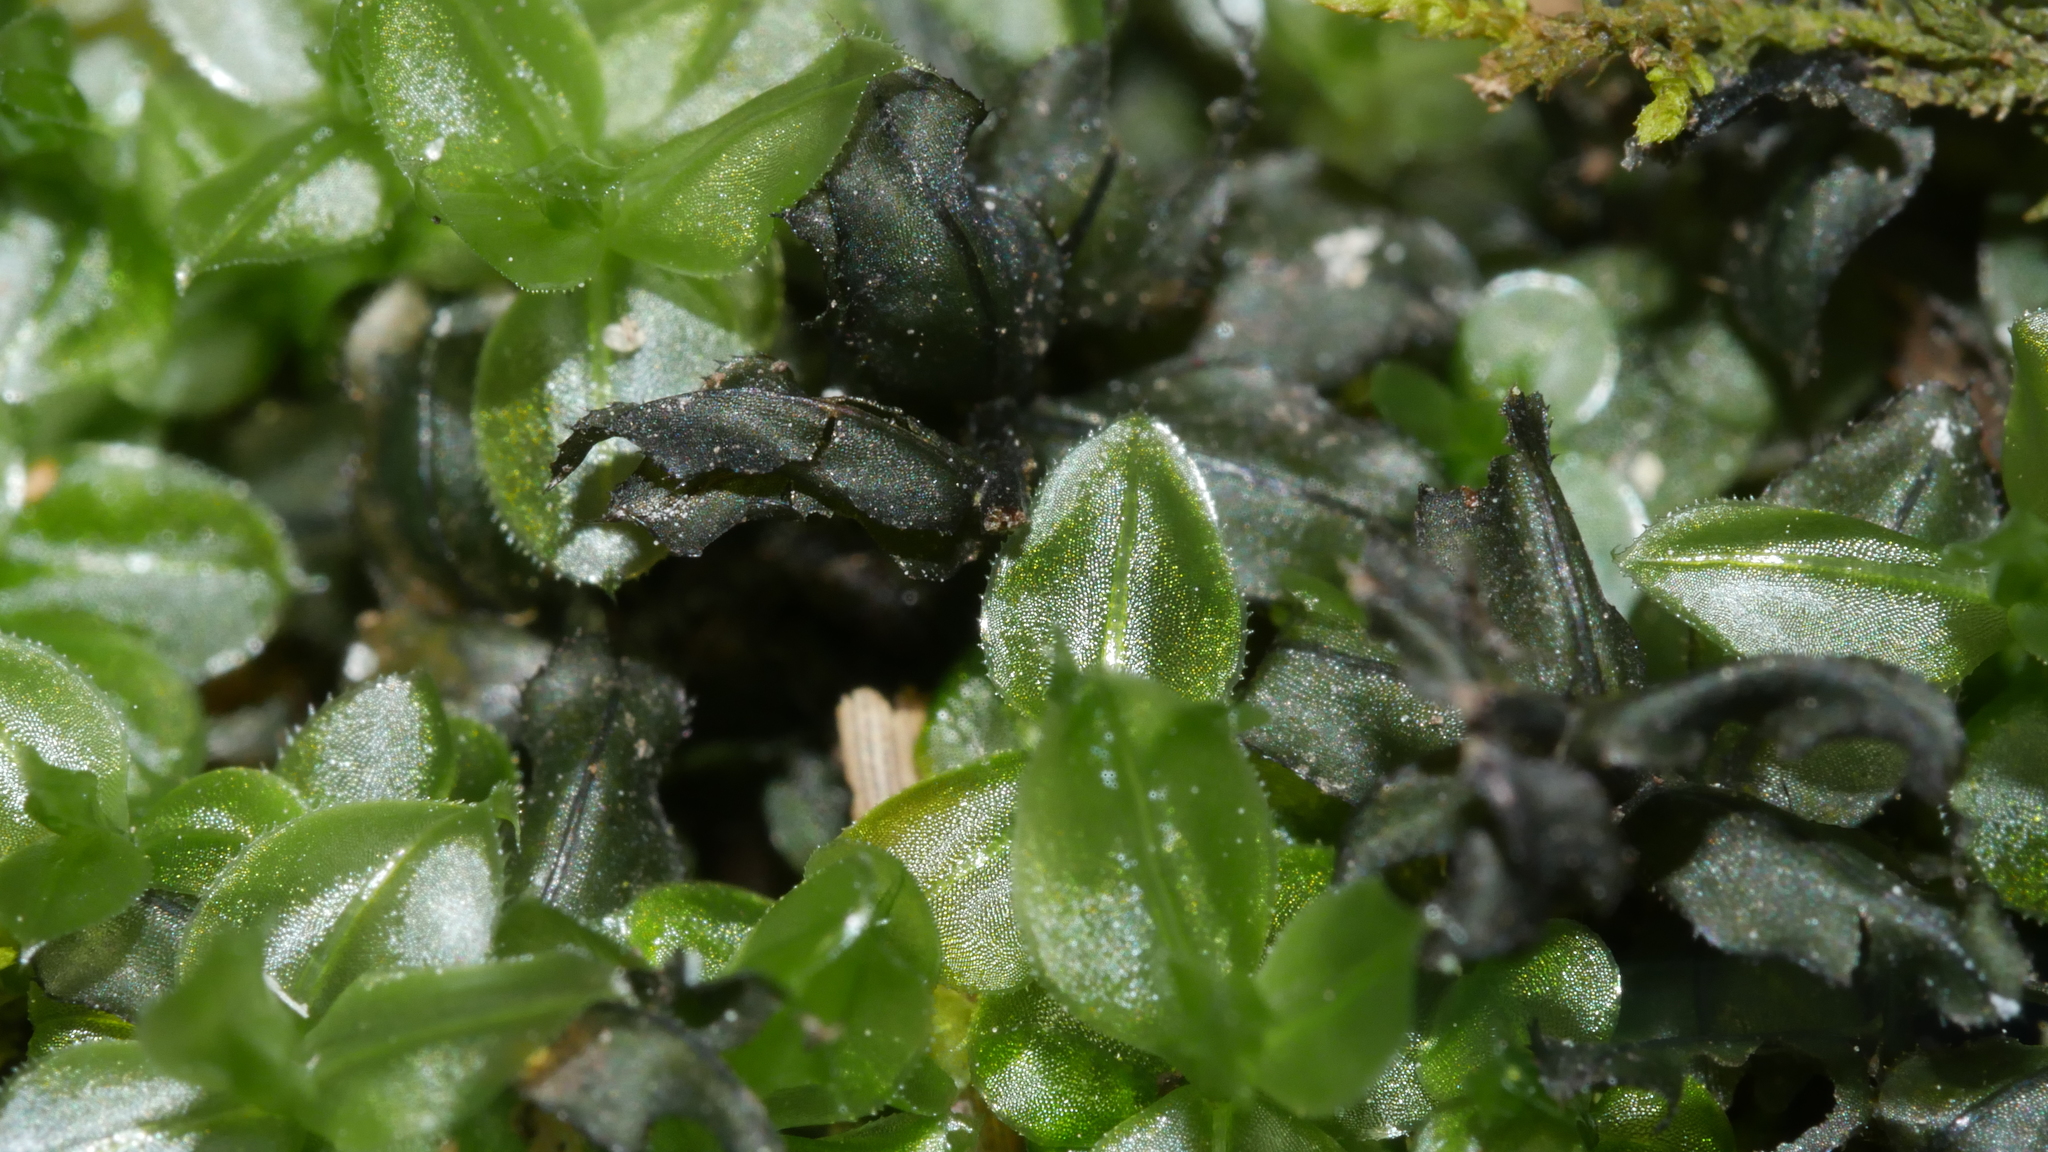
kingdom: Plantae
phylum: Bryophyta
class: Bryopsida
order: Bryales
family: Mniaceae
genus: Plagiomnium
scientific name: Plagiomnium
